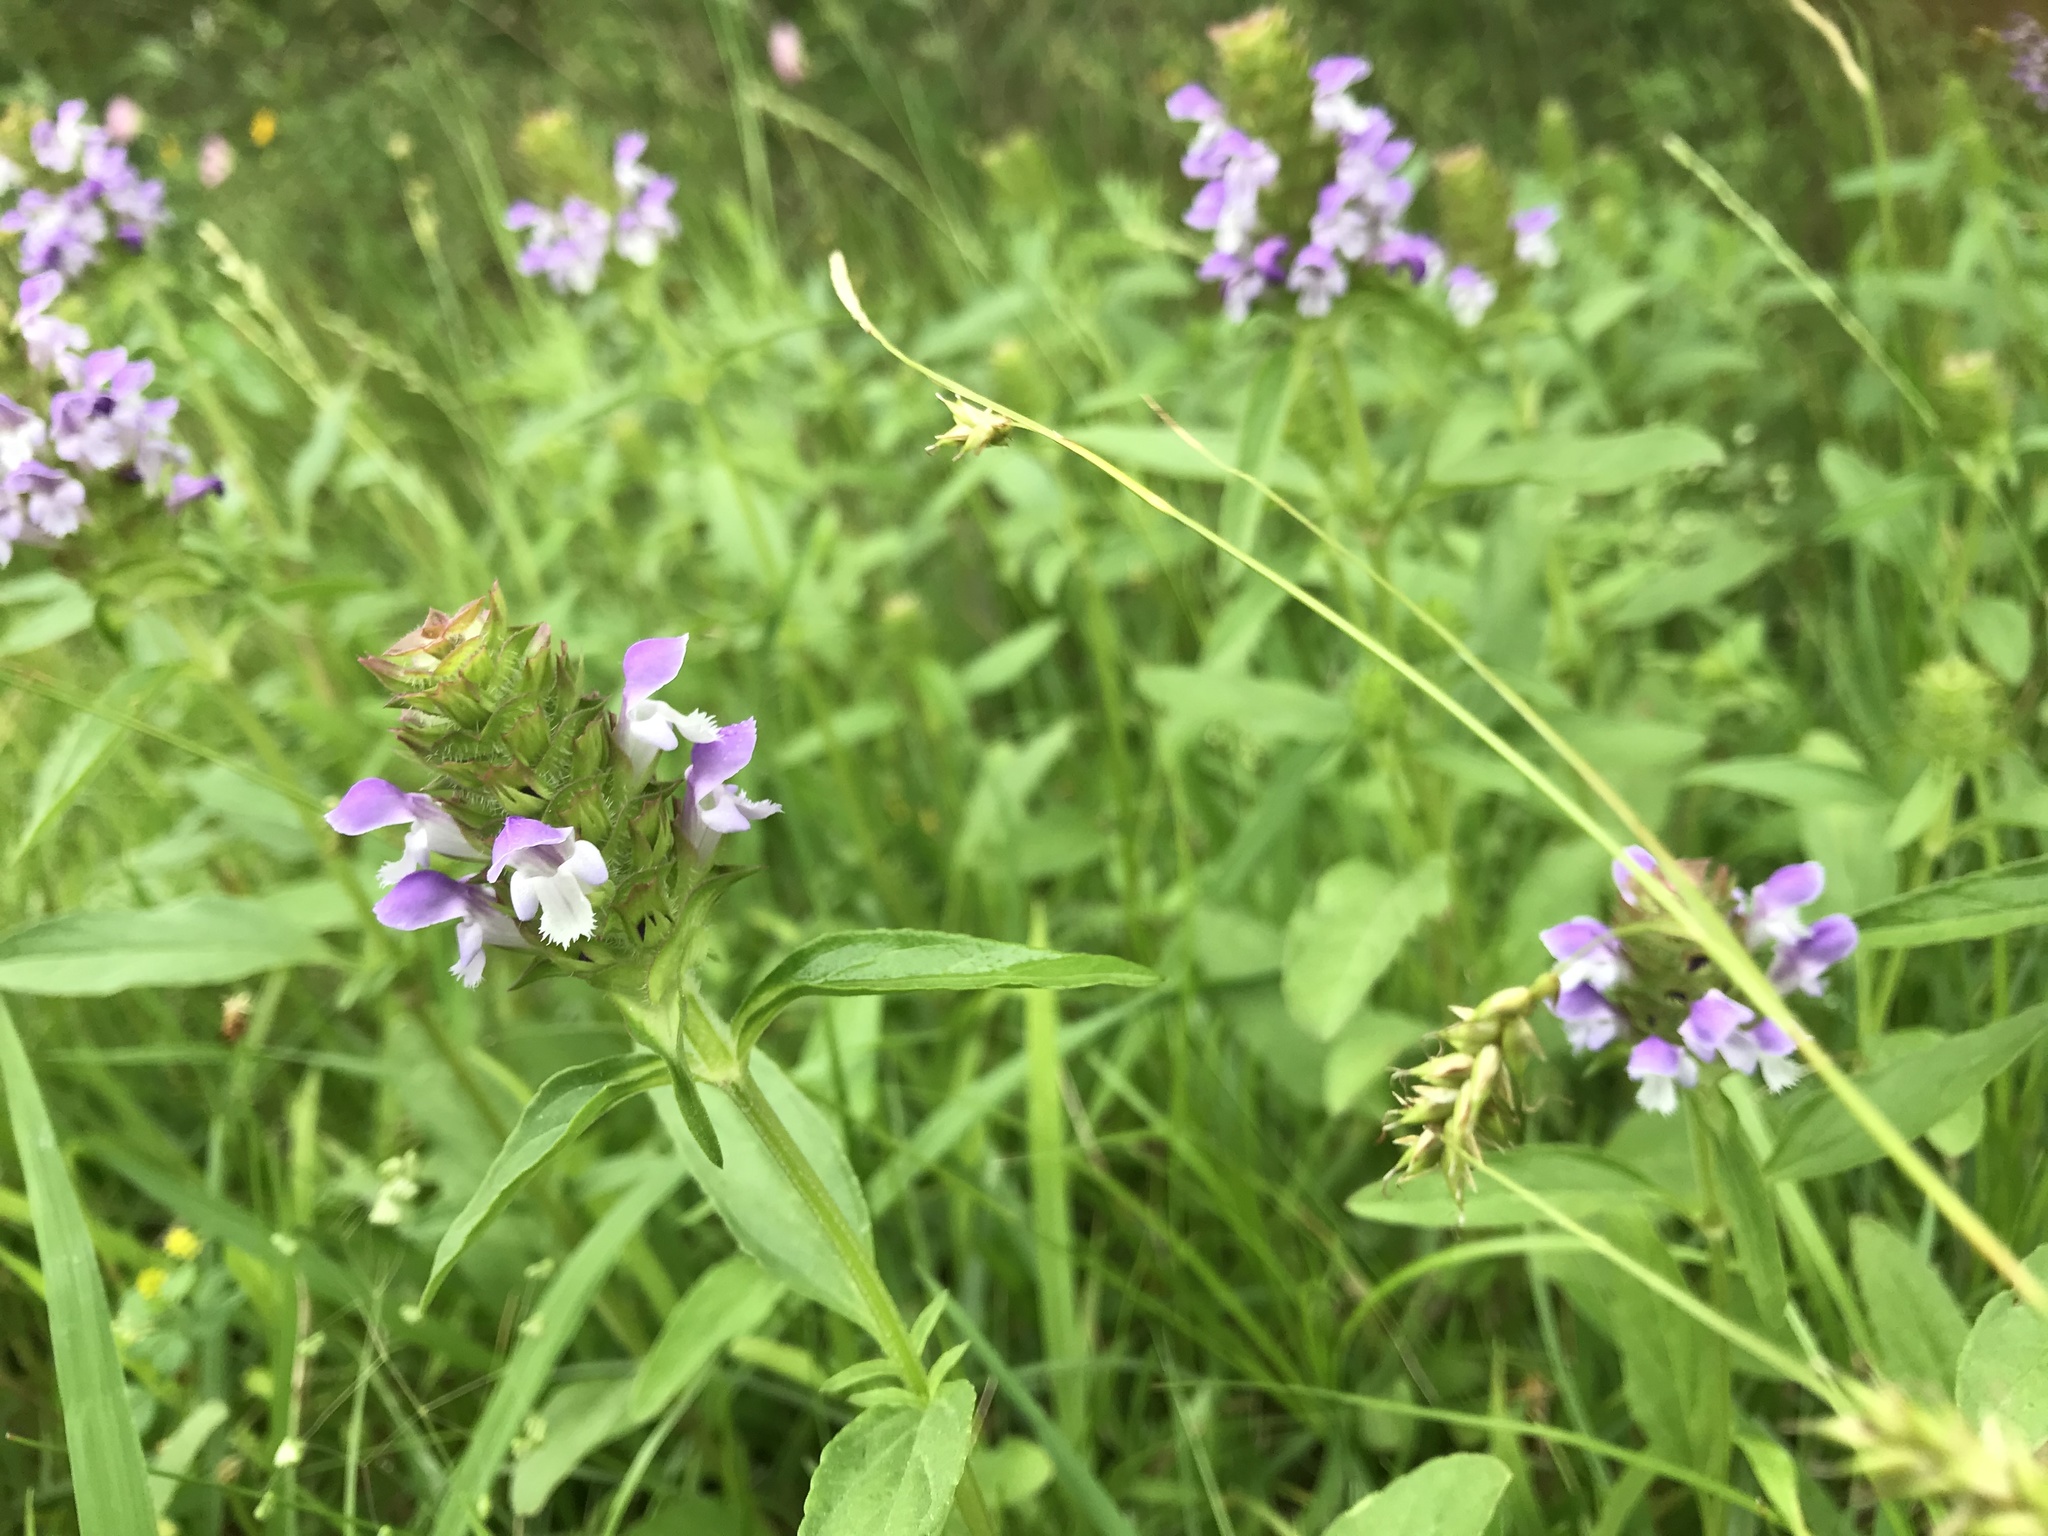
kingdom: Plantae
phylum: Tracheophyta
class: Magnoliopsida
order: Lamiales
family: Lamiaceae
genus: Prunella
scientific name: Prunella vulgaris
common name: Heal-all
